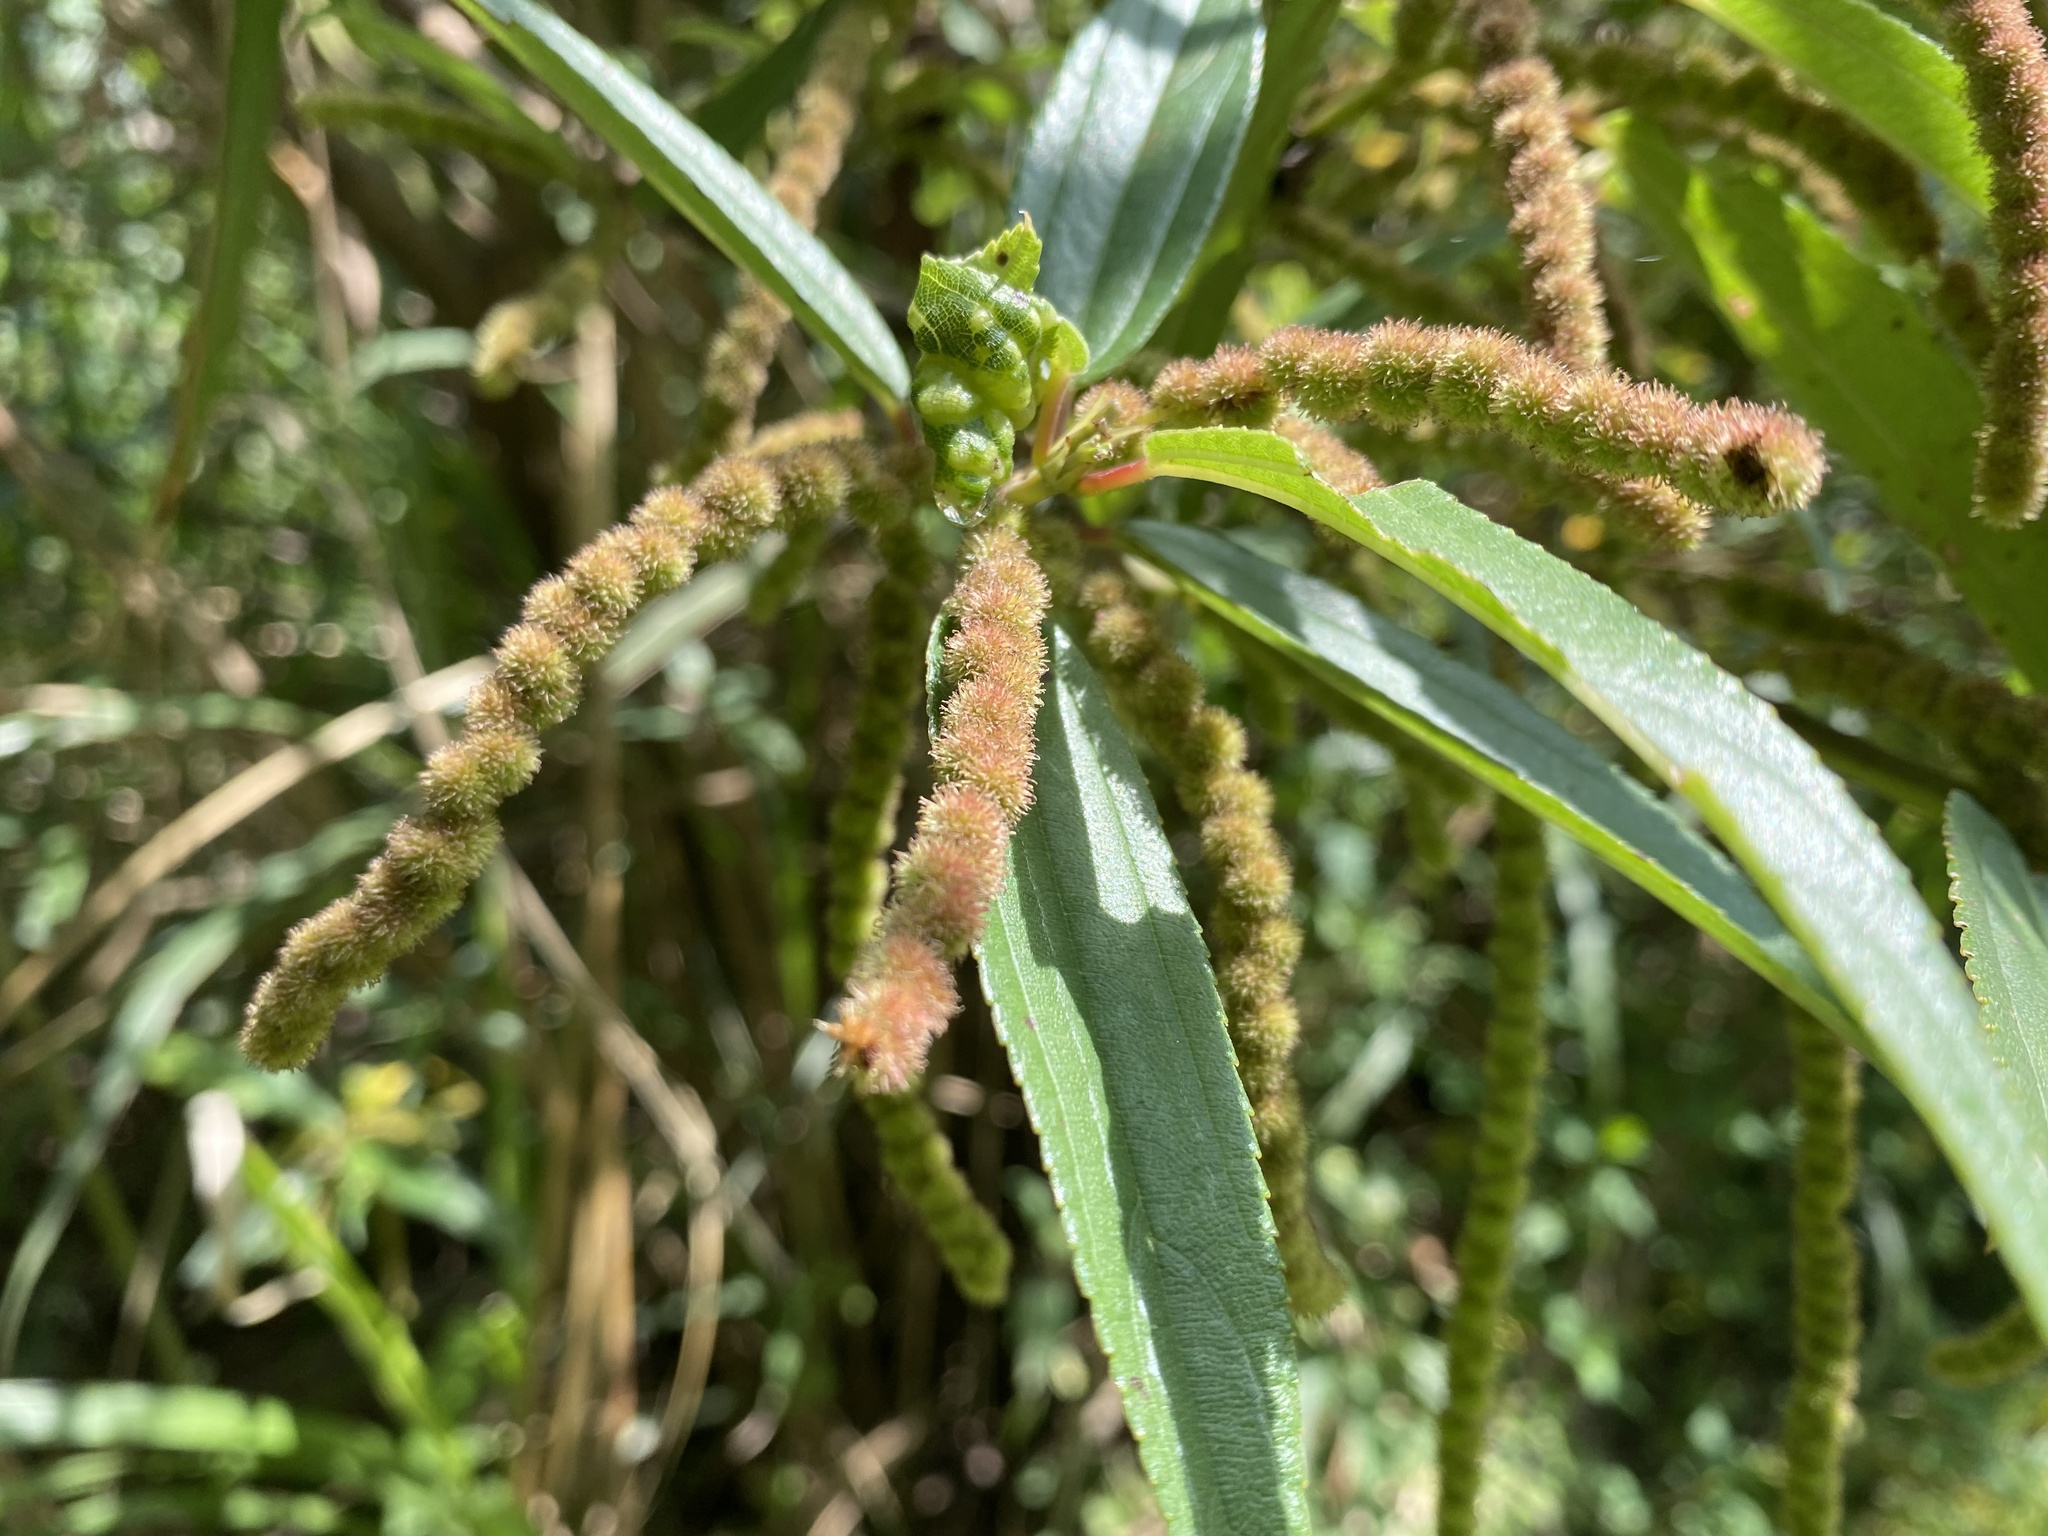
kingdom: Plantae
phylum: Tracheophyta
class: Magnoliopsida
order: Rosales
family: Urticaceae
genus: Boehmeria
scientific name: Boehmeria densiflora
